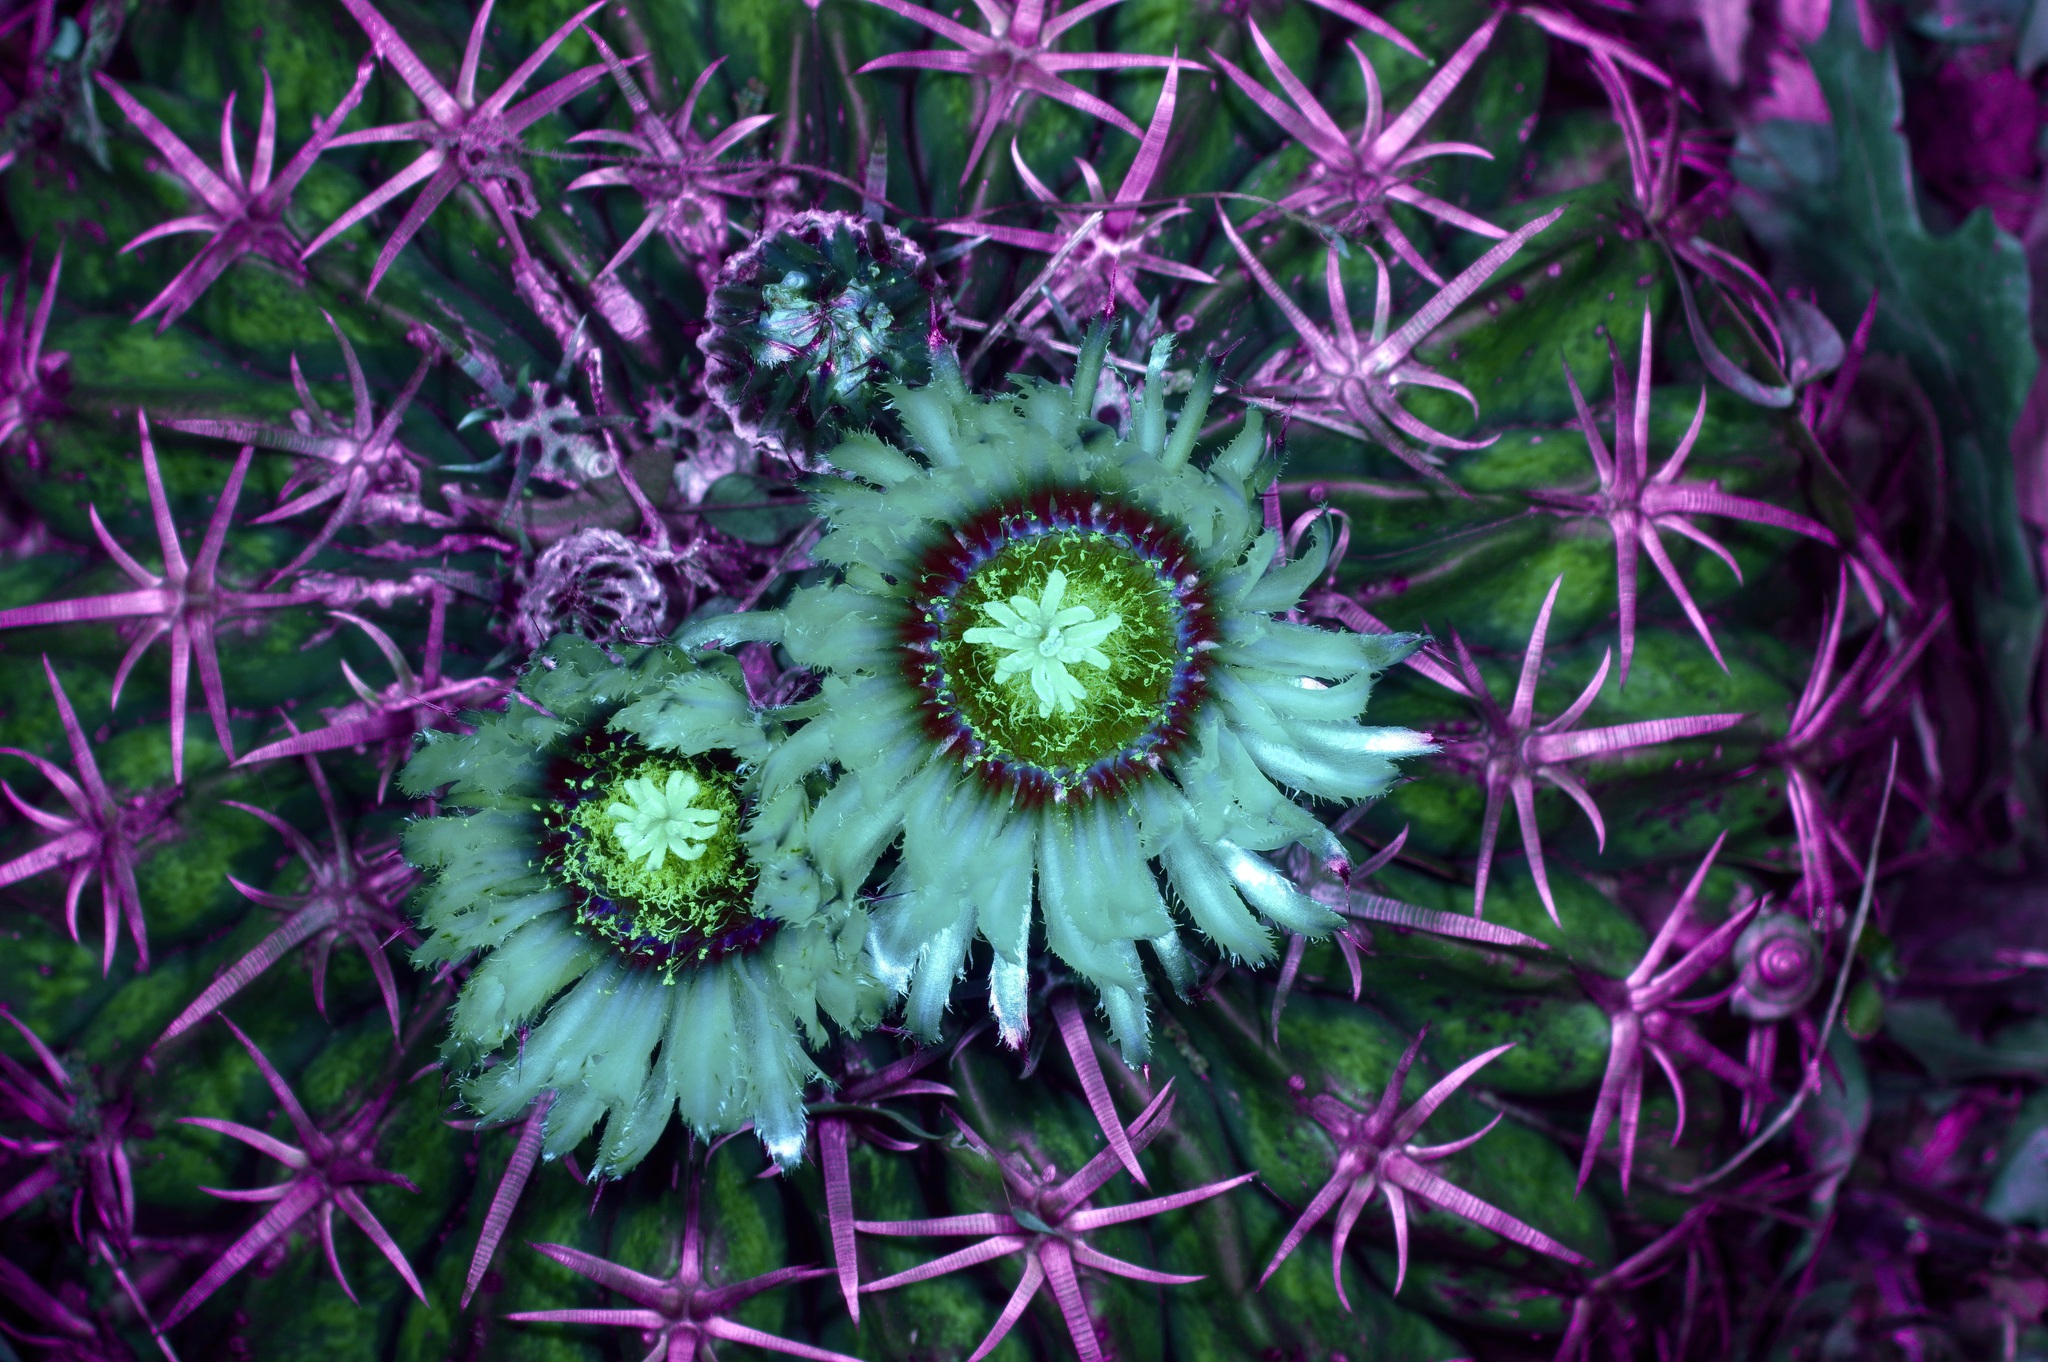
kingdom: Plantae
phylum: Tracheophyta
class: Magnoliopsida
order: Caryophyllales
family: Cactaceae
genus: Echinocactus
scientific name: Echinocactus texensis
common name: Devil's pincushion
